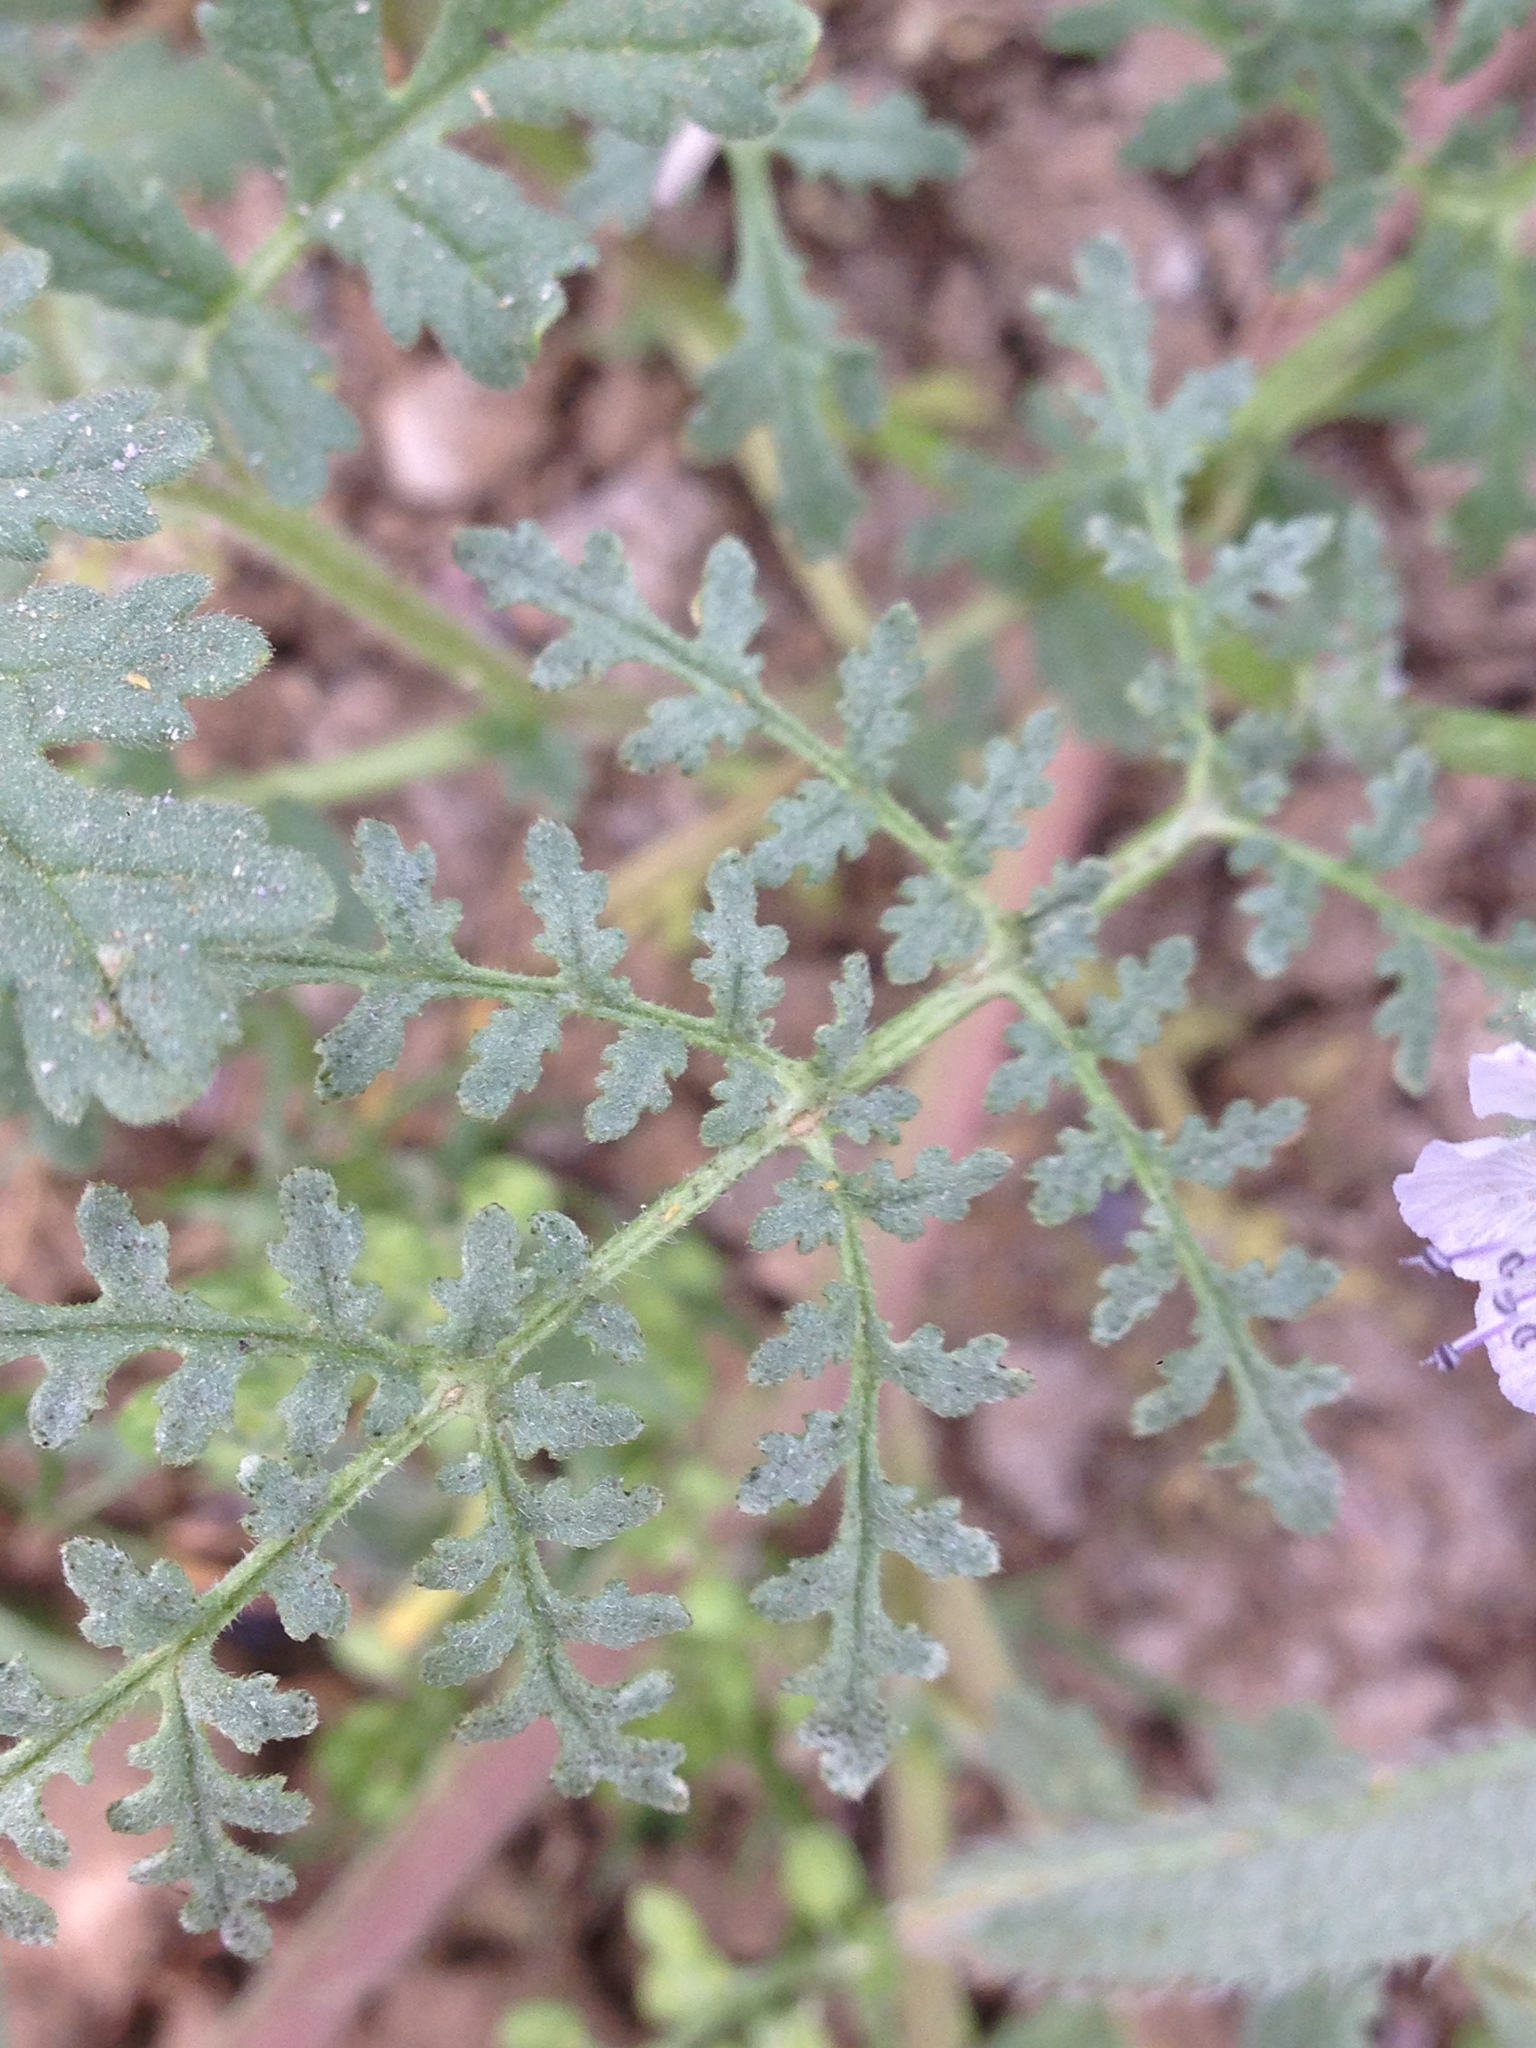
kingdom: Plantae
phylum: Tracheophyta
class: Magnoliopsida
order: Boraginales
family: Hydrophyllaceae
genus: Phacelia
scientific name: Phacelia tanacetifolia
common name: Phacelia
